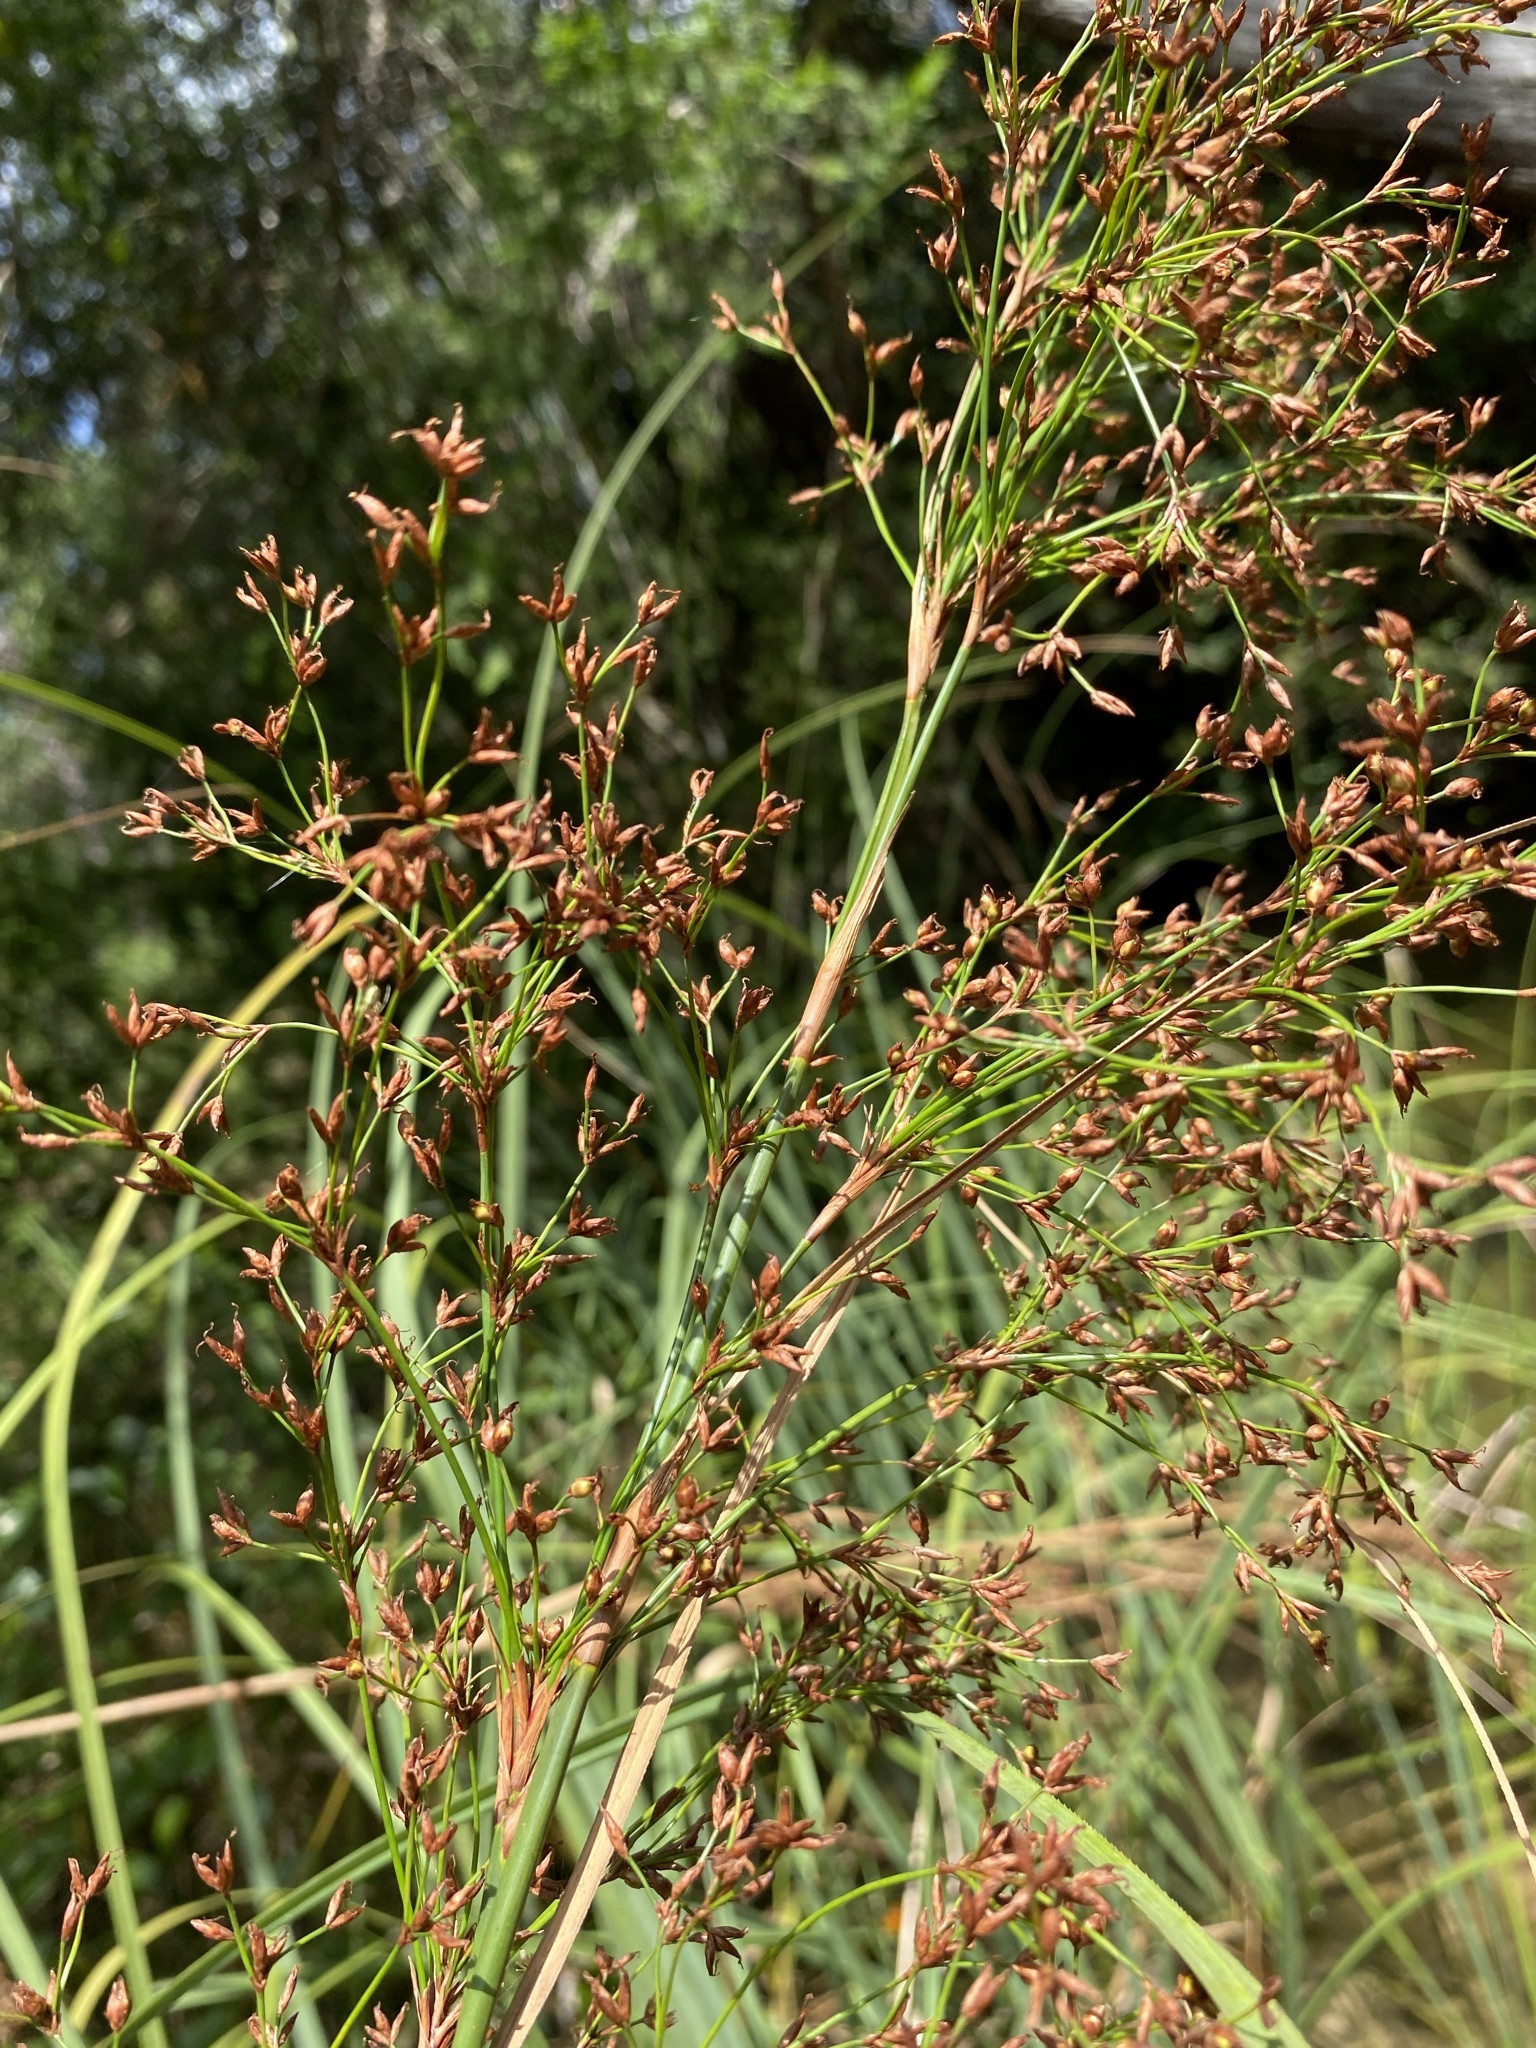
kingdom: Plantae
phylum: Tracheophyta
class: Liliopsida
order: Poales
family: Cyperaceae
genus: Cladium
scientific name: Cladium mariscus
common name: Great fen-sedge
